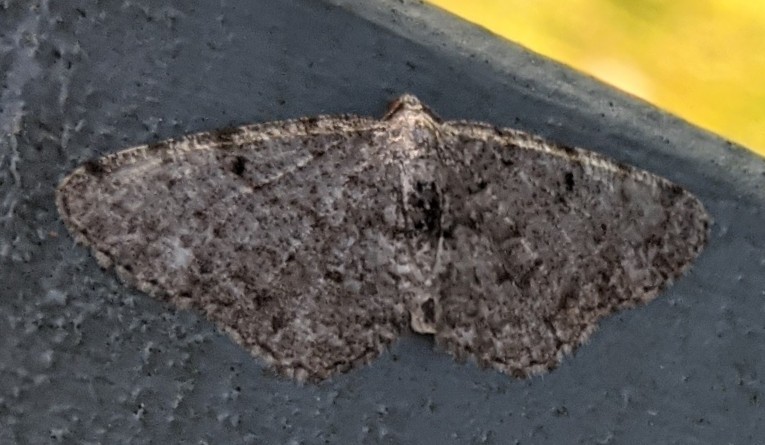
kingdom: Animalia
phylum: Arthropoda
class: Insecta
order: Lepidoptera
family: Geometridae
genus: Aethalura
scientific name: Aethalura intertexta
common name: Four-barred gray
